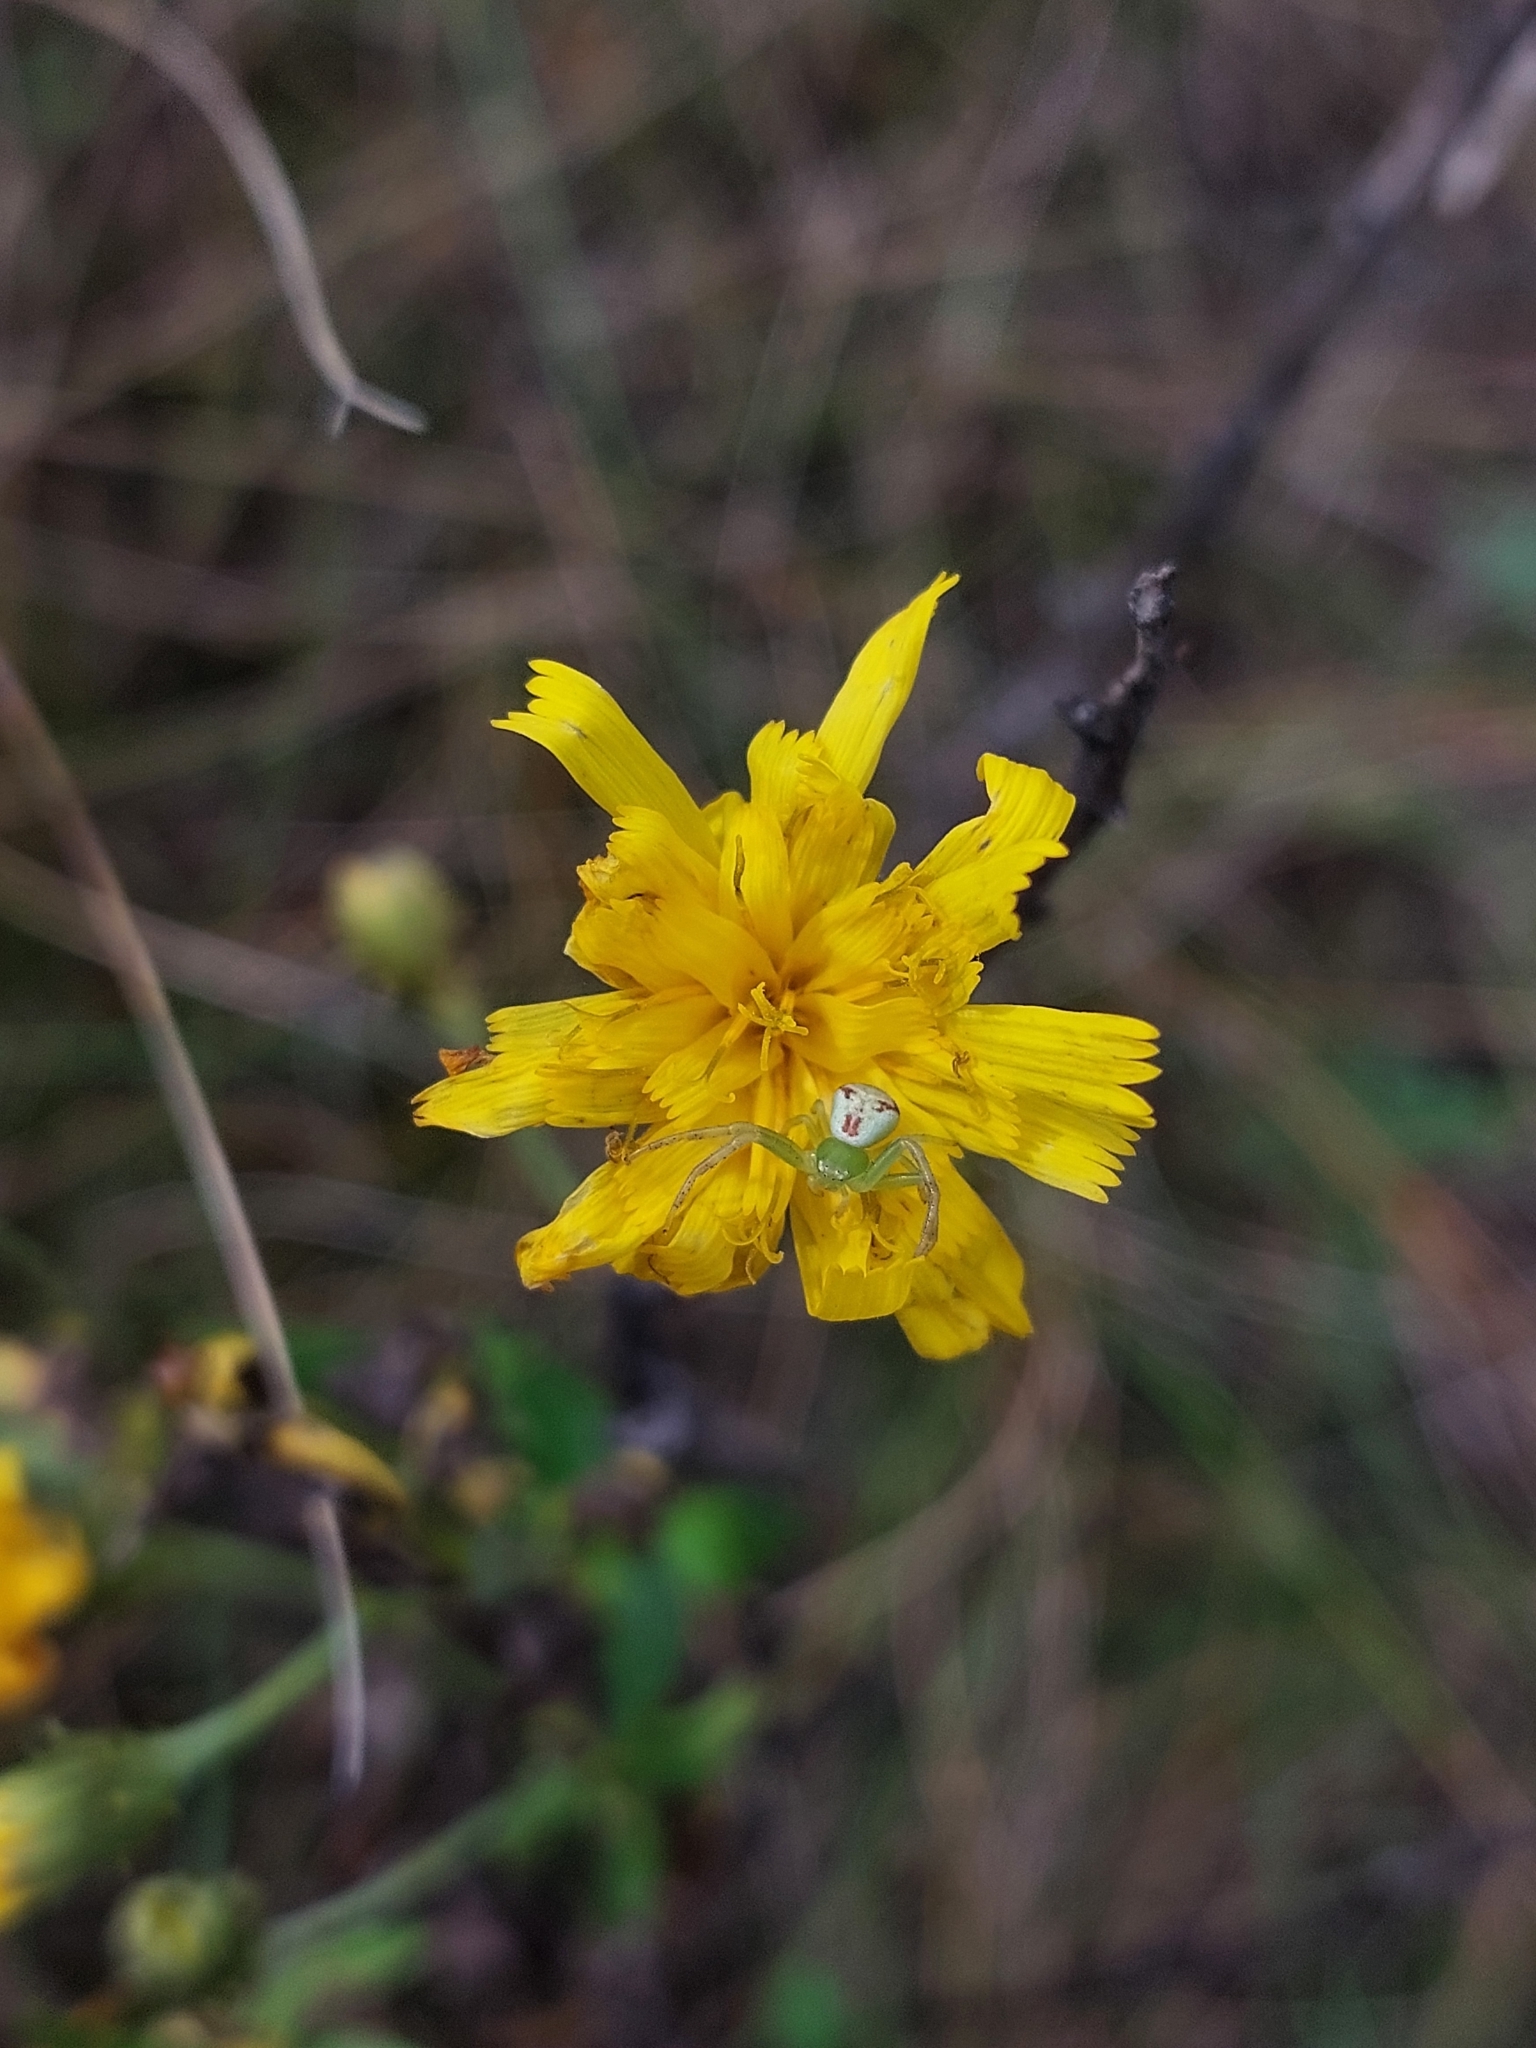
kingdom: Animalia
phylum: Arthropoda
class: Arachnida
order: Araneae
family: Thomisidae
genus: Ebrechtella
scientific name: Ebrechtella tricuspidata
